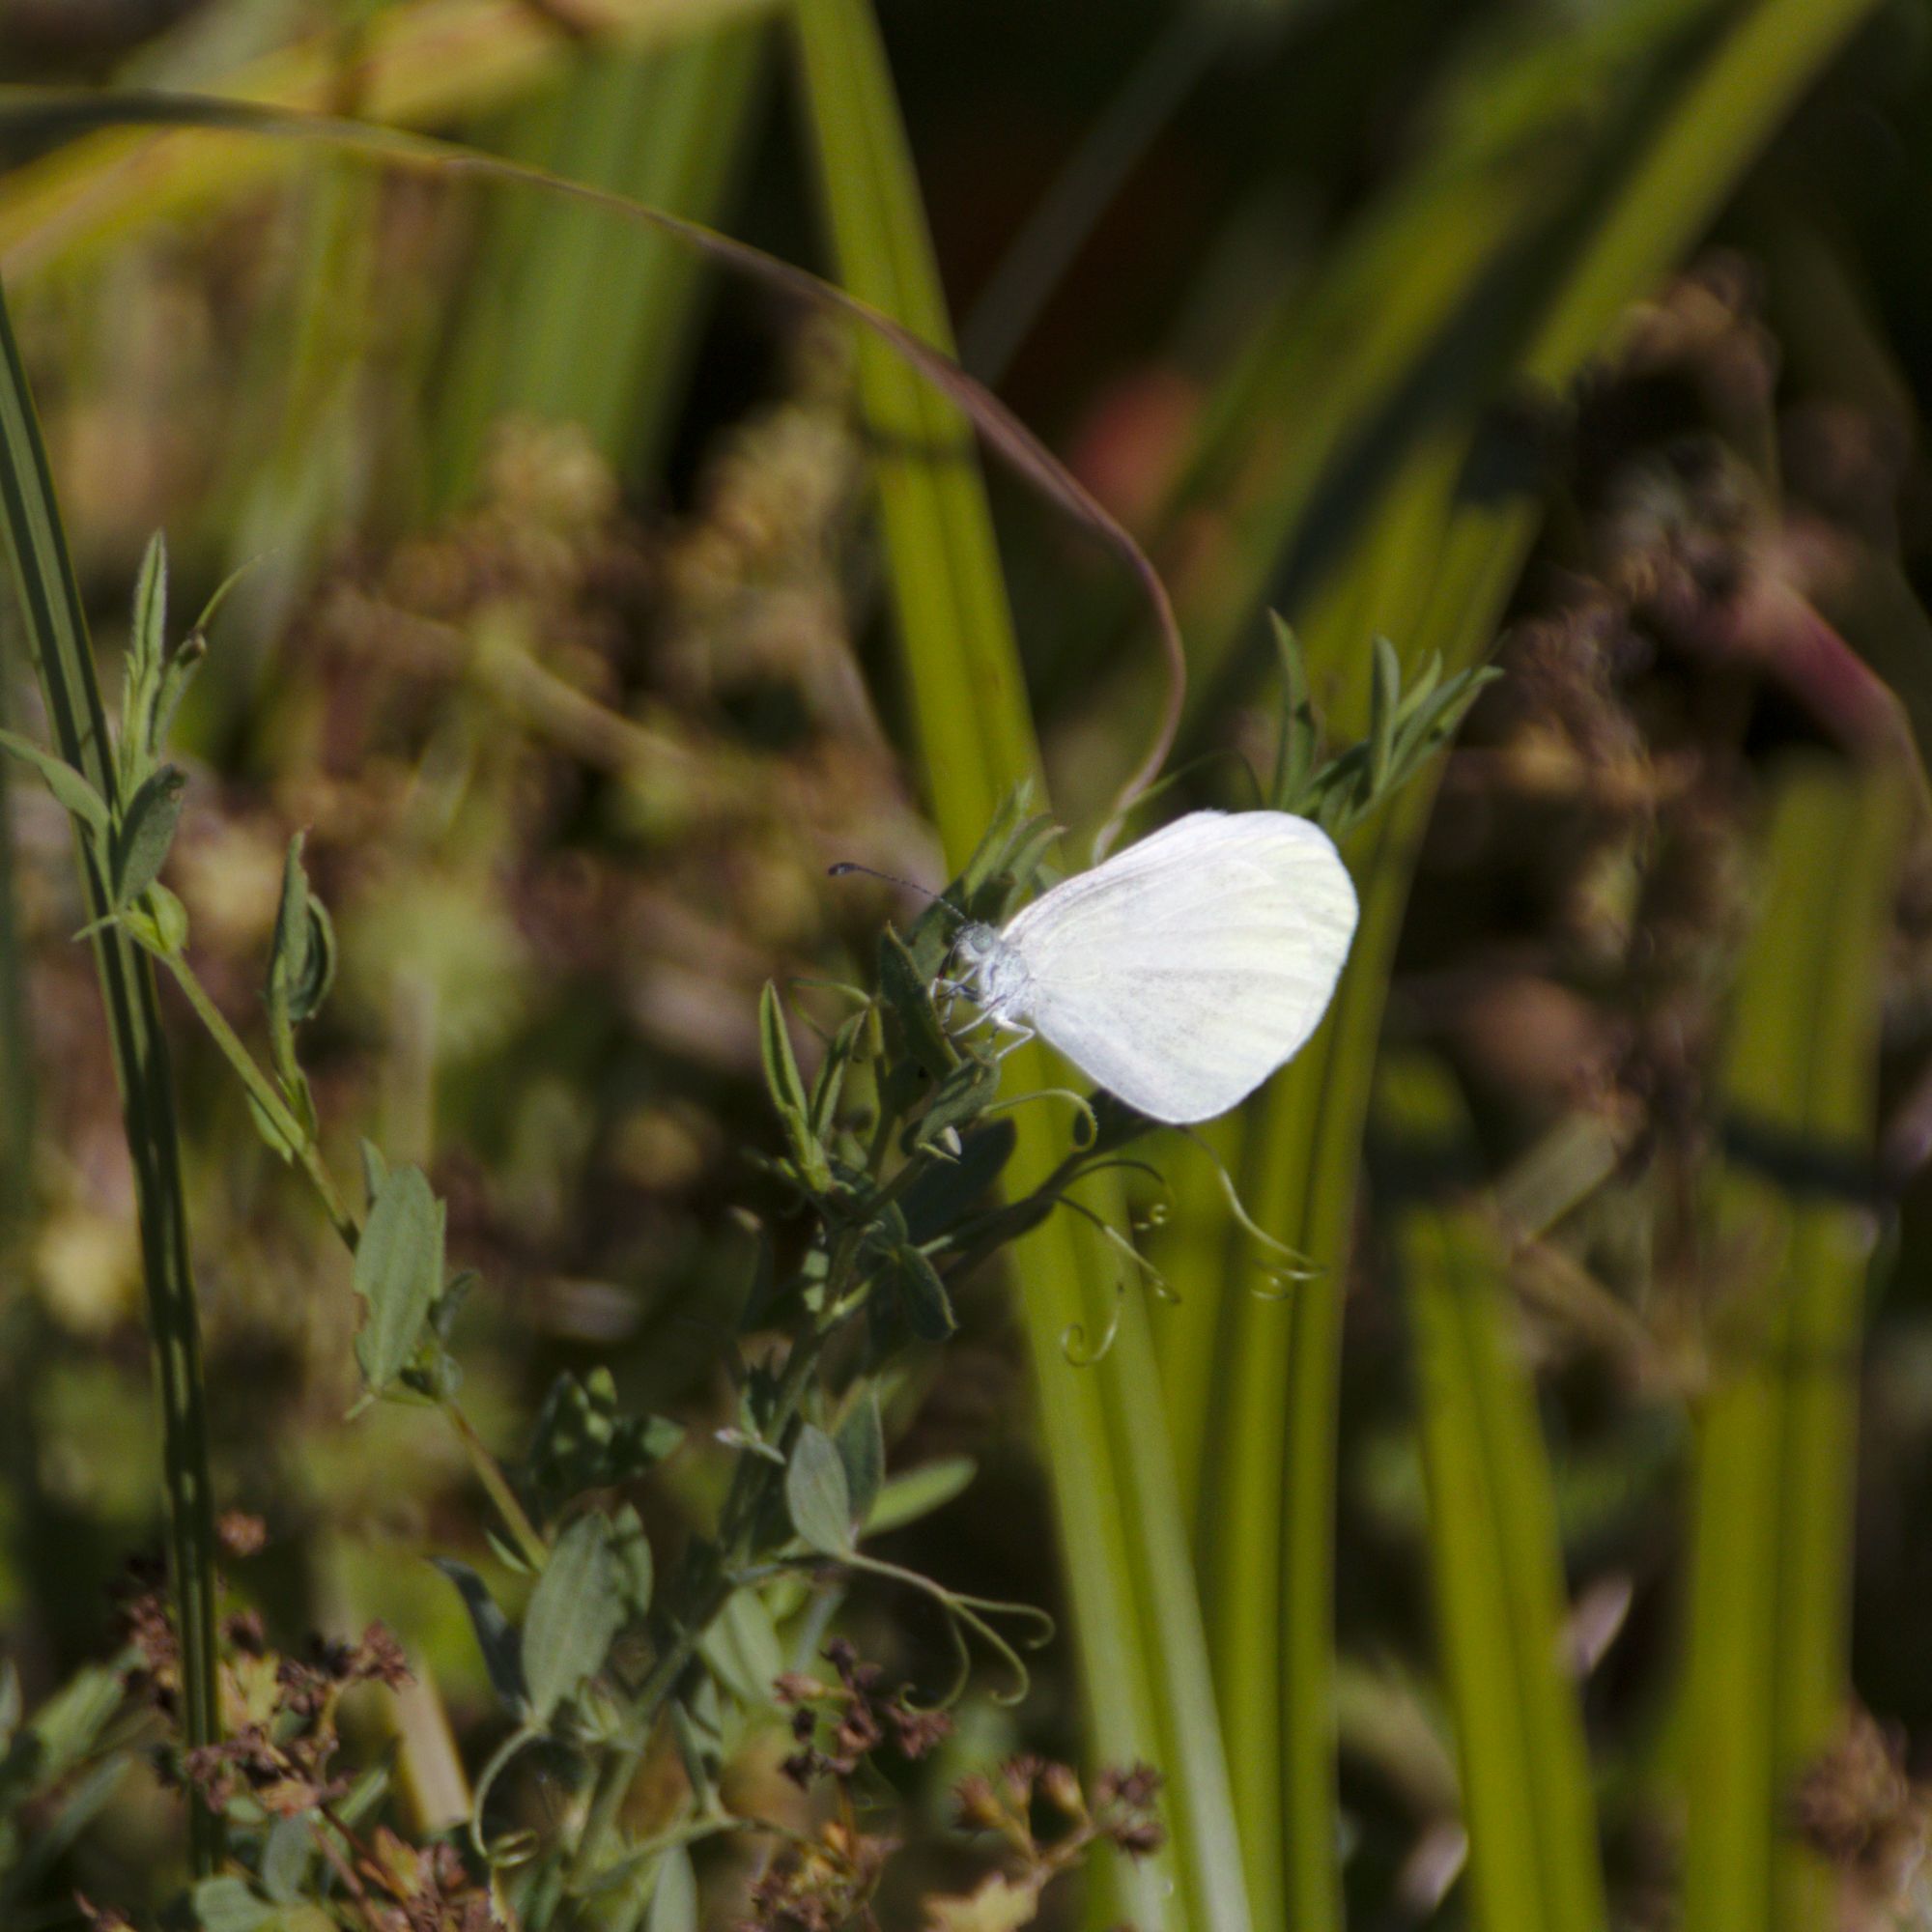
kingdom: Animalia
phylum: Arthropoda
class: Insecta
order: Lepidoptera
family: Pieridae
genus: Leptidea
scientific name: Leptidea
